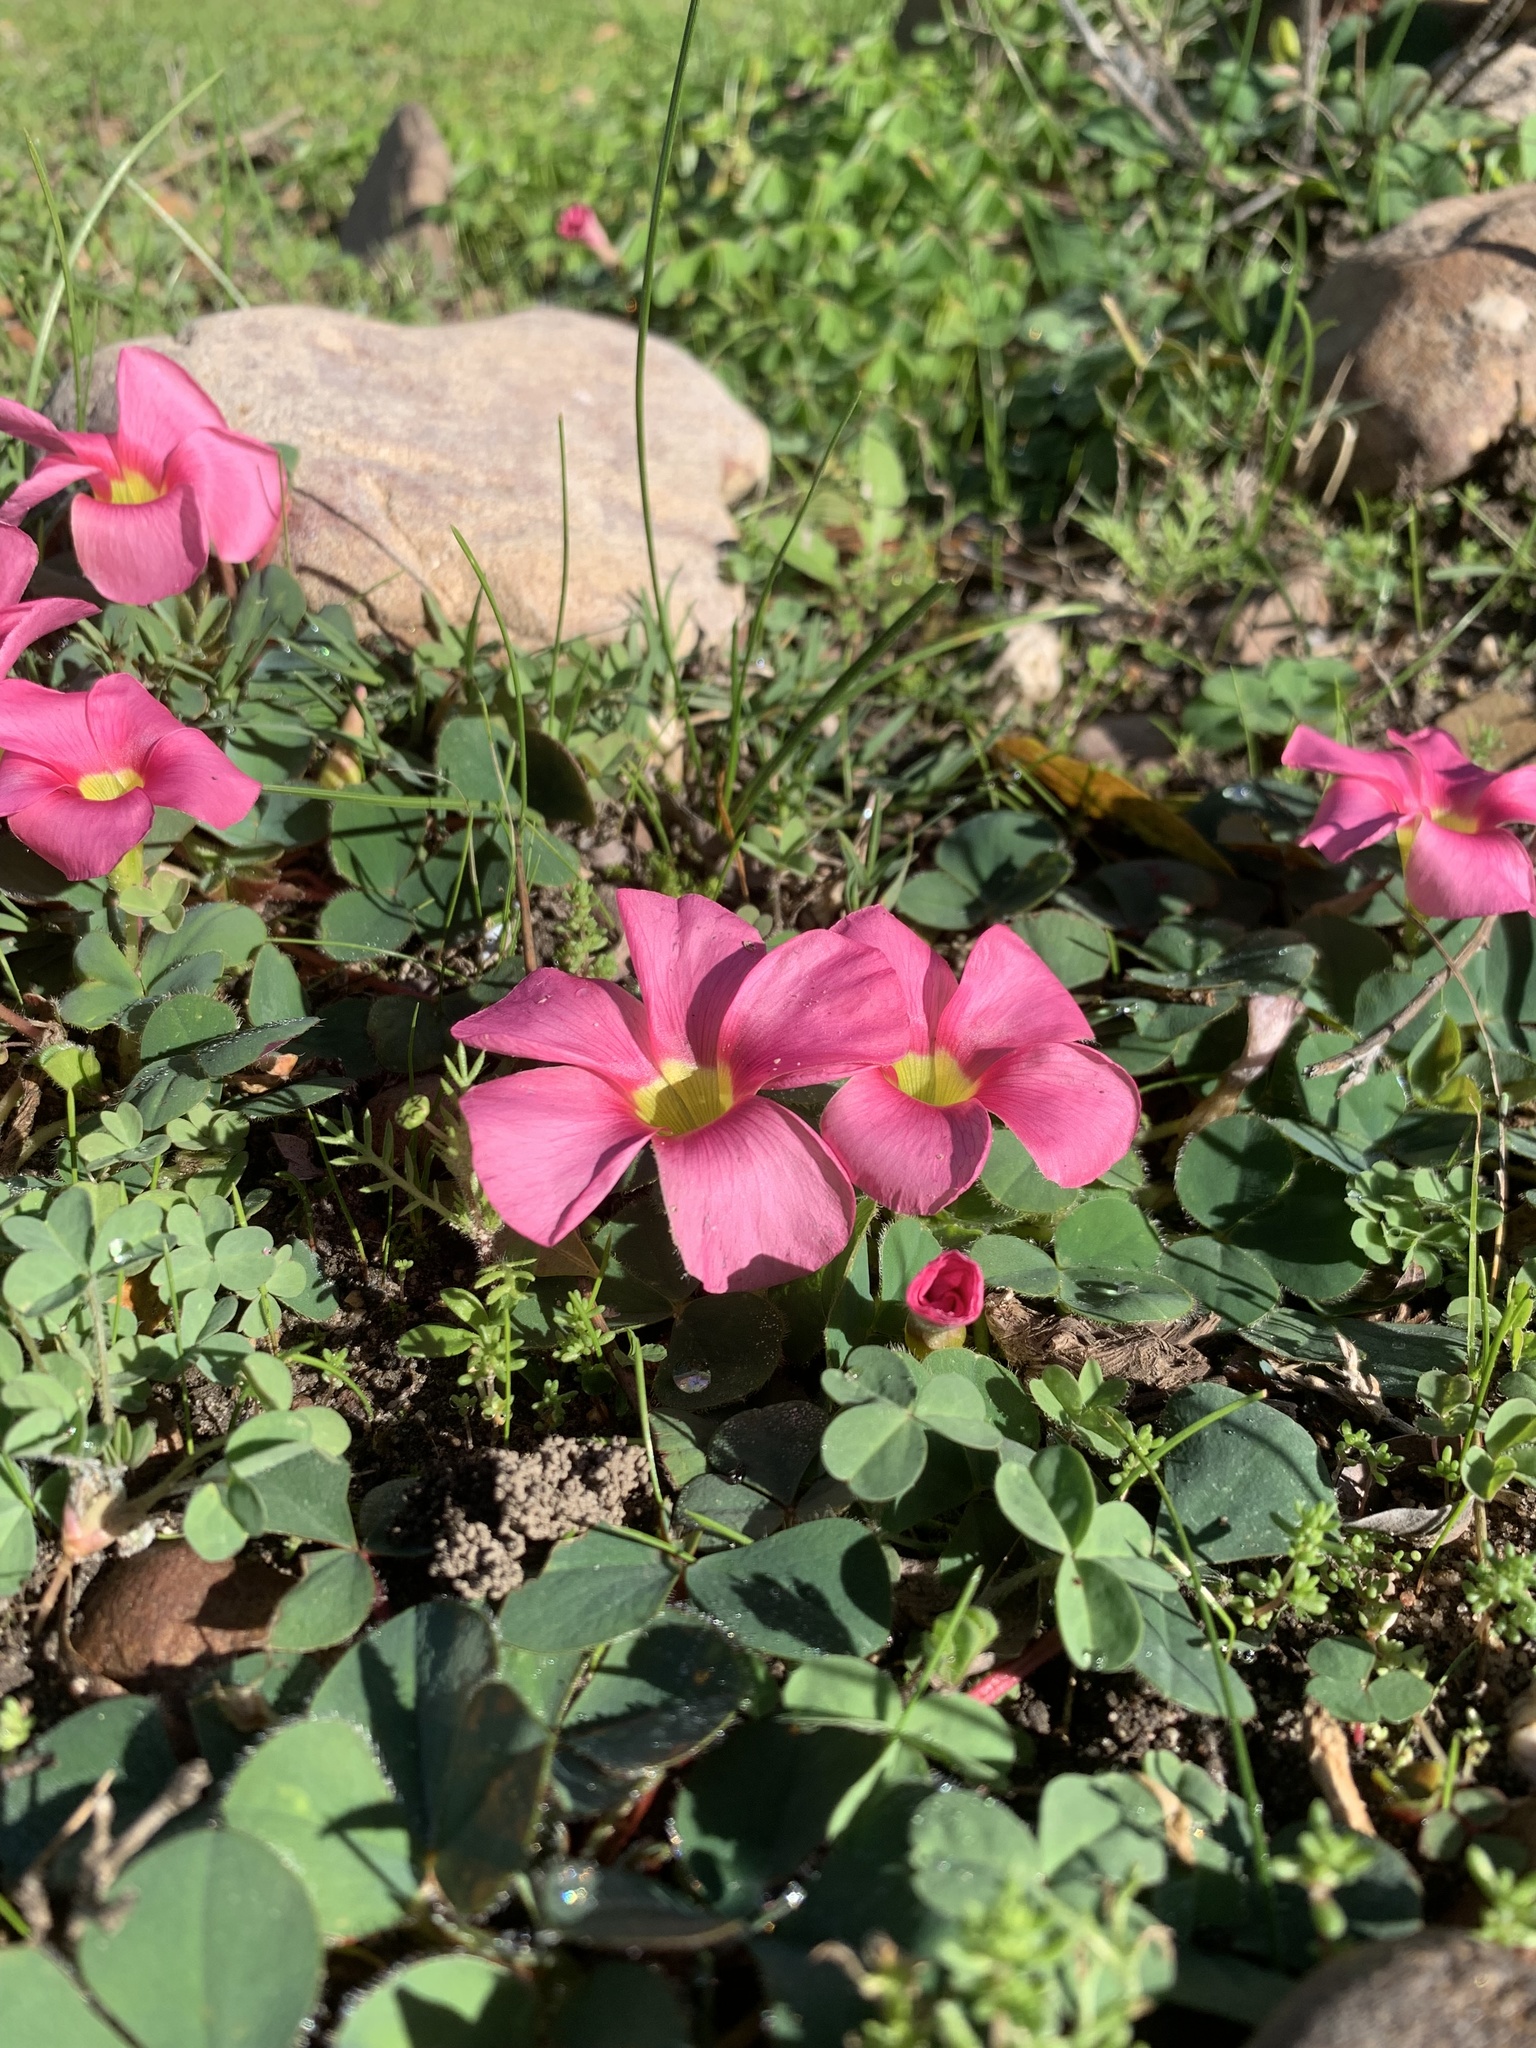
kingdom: Plantae
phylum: Tracheophyta
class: Magnoliopsida
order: Oxalidales
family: Oxalidaceae
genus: Oxalis
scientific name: Oxalis purpurea
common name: Purple woodsorrel
